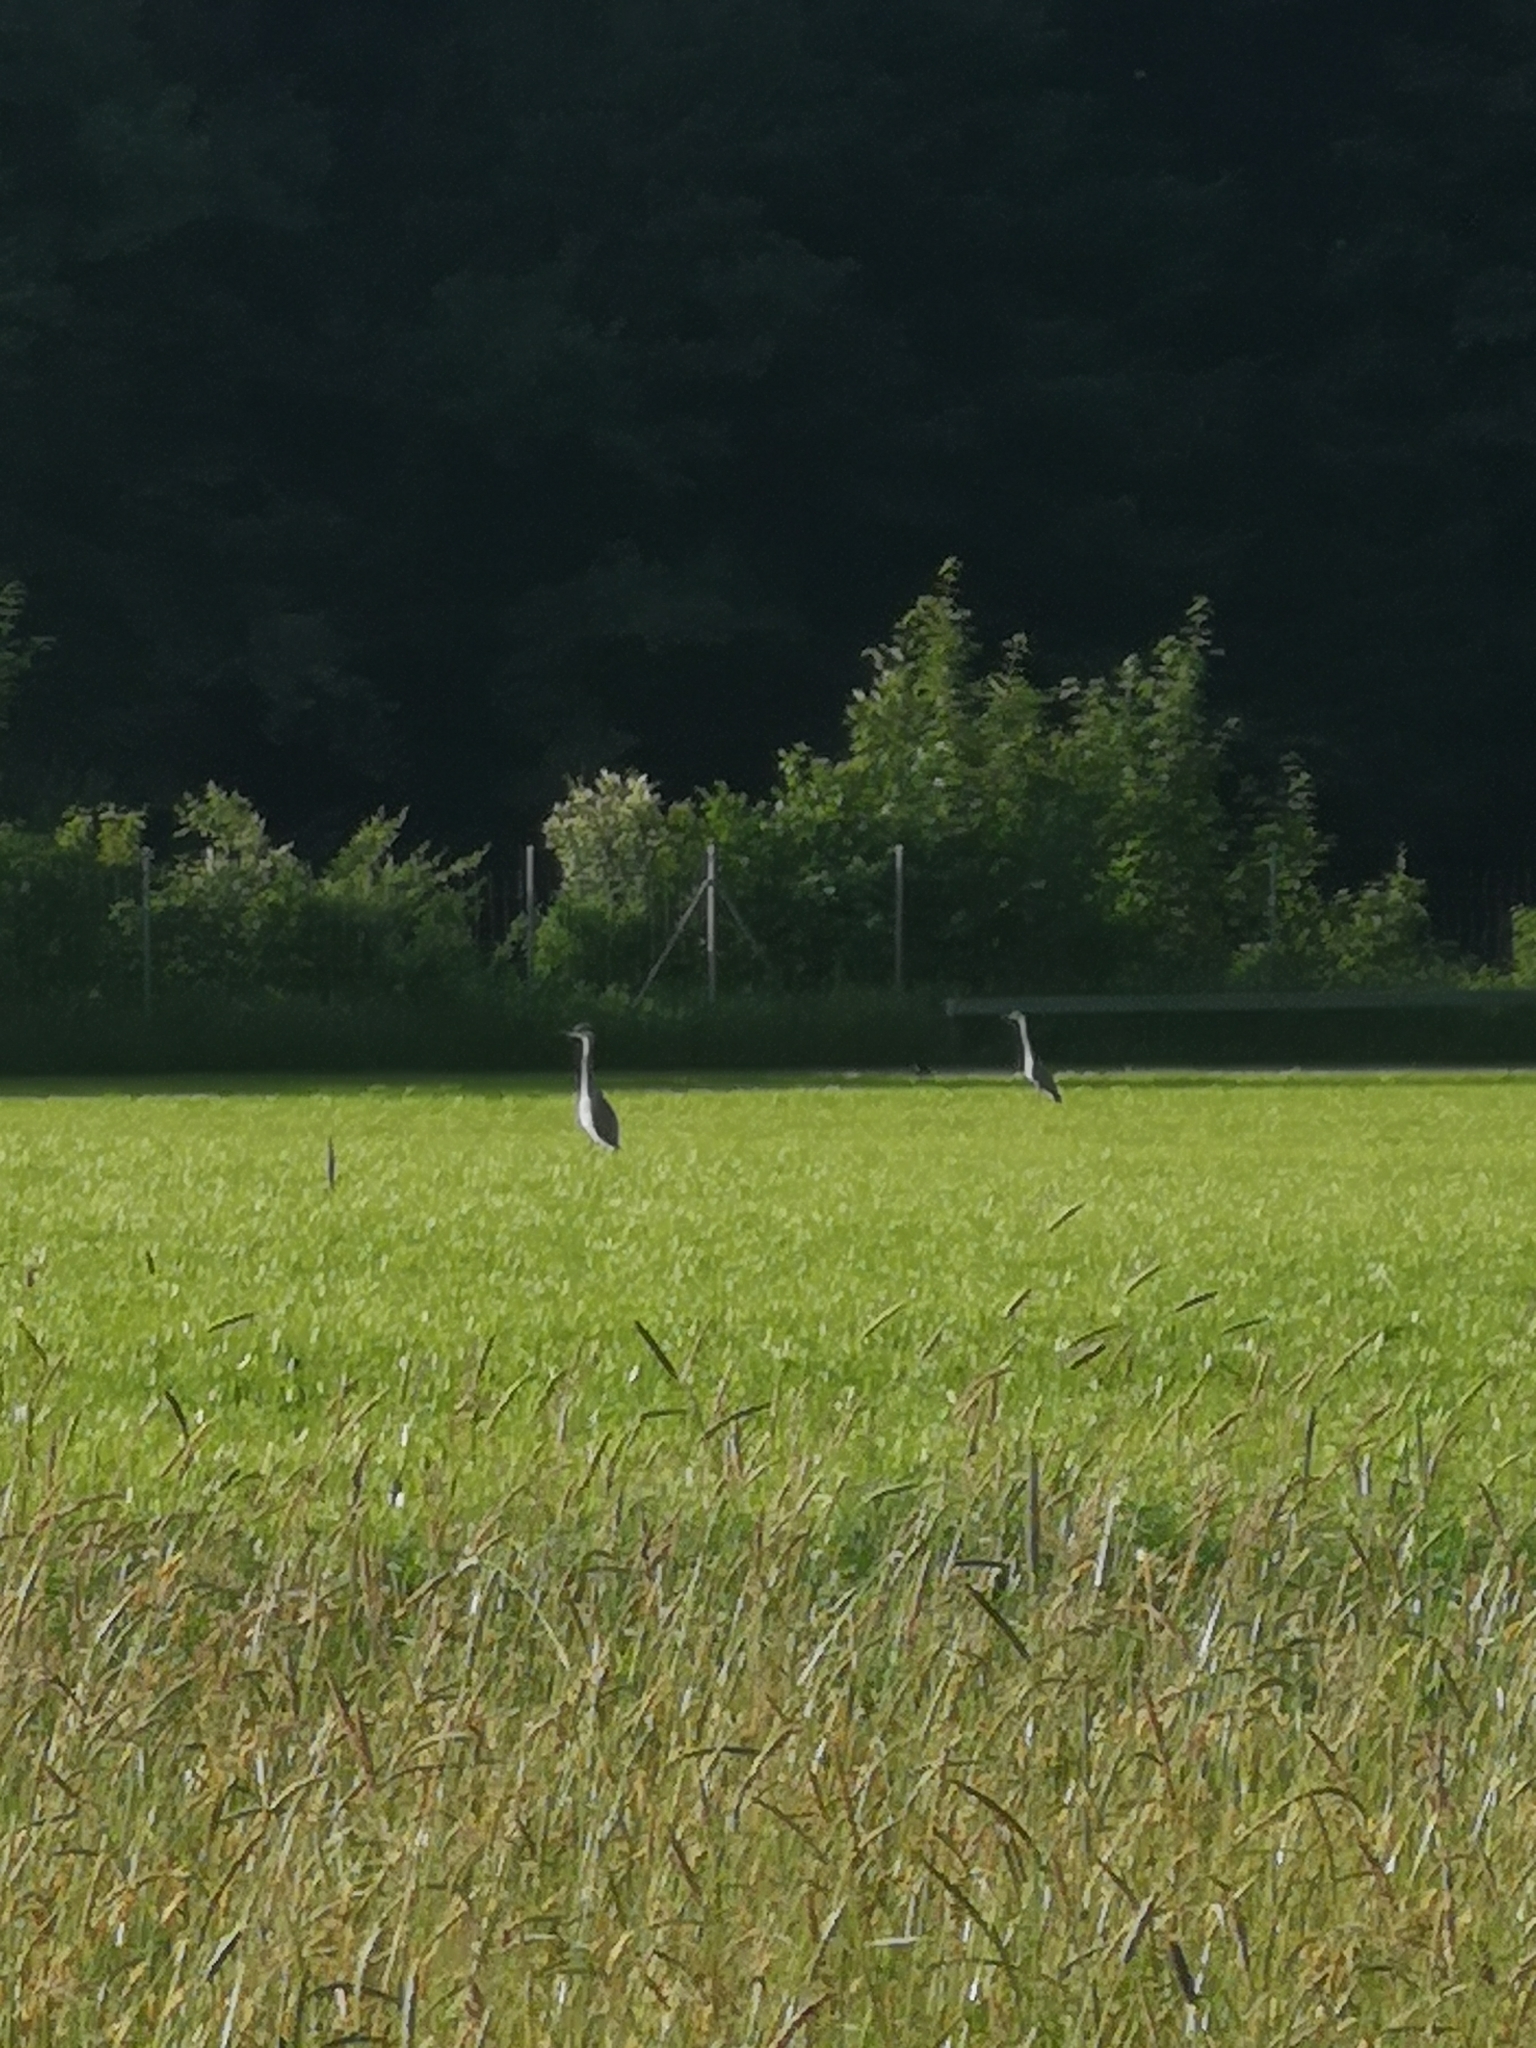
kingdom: Animalia
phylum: Chordata
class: Aves
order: Pelecaniformes
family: Ardeidae
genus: Ardea
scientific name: Ardea cinerea
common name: Grey heron
